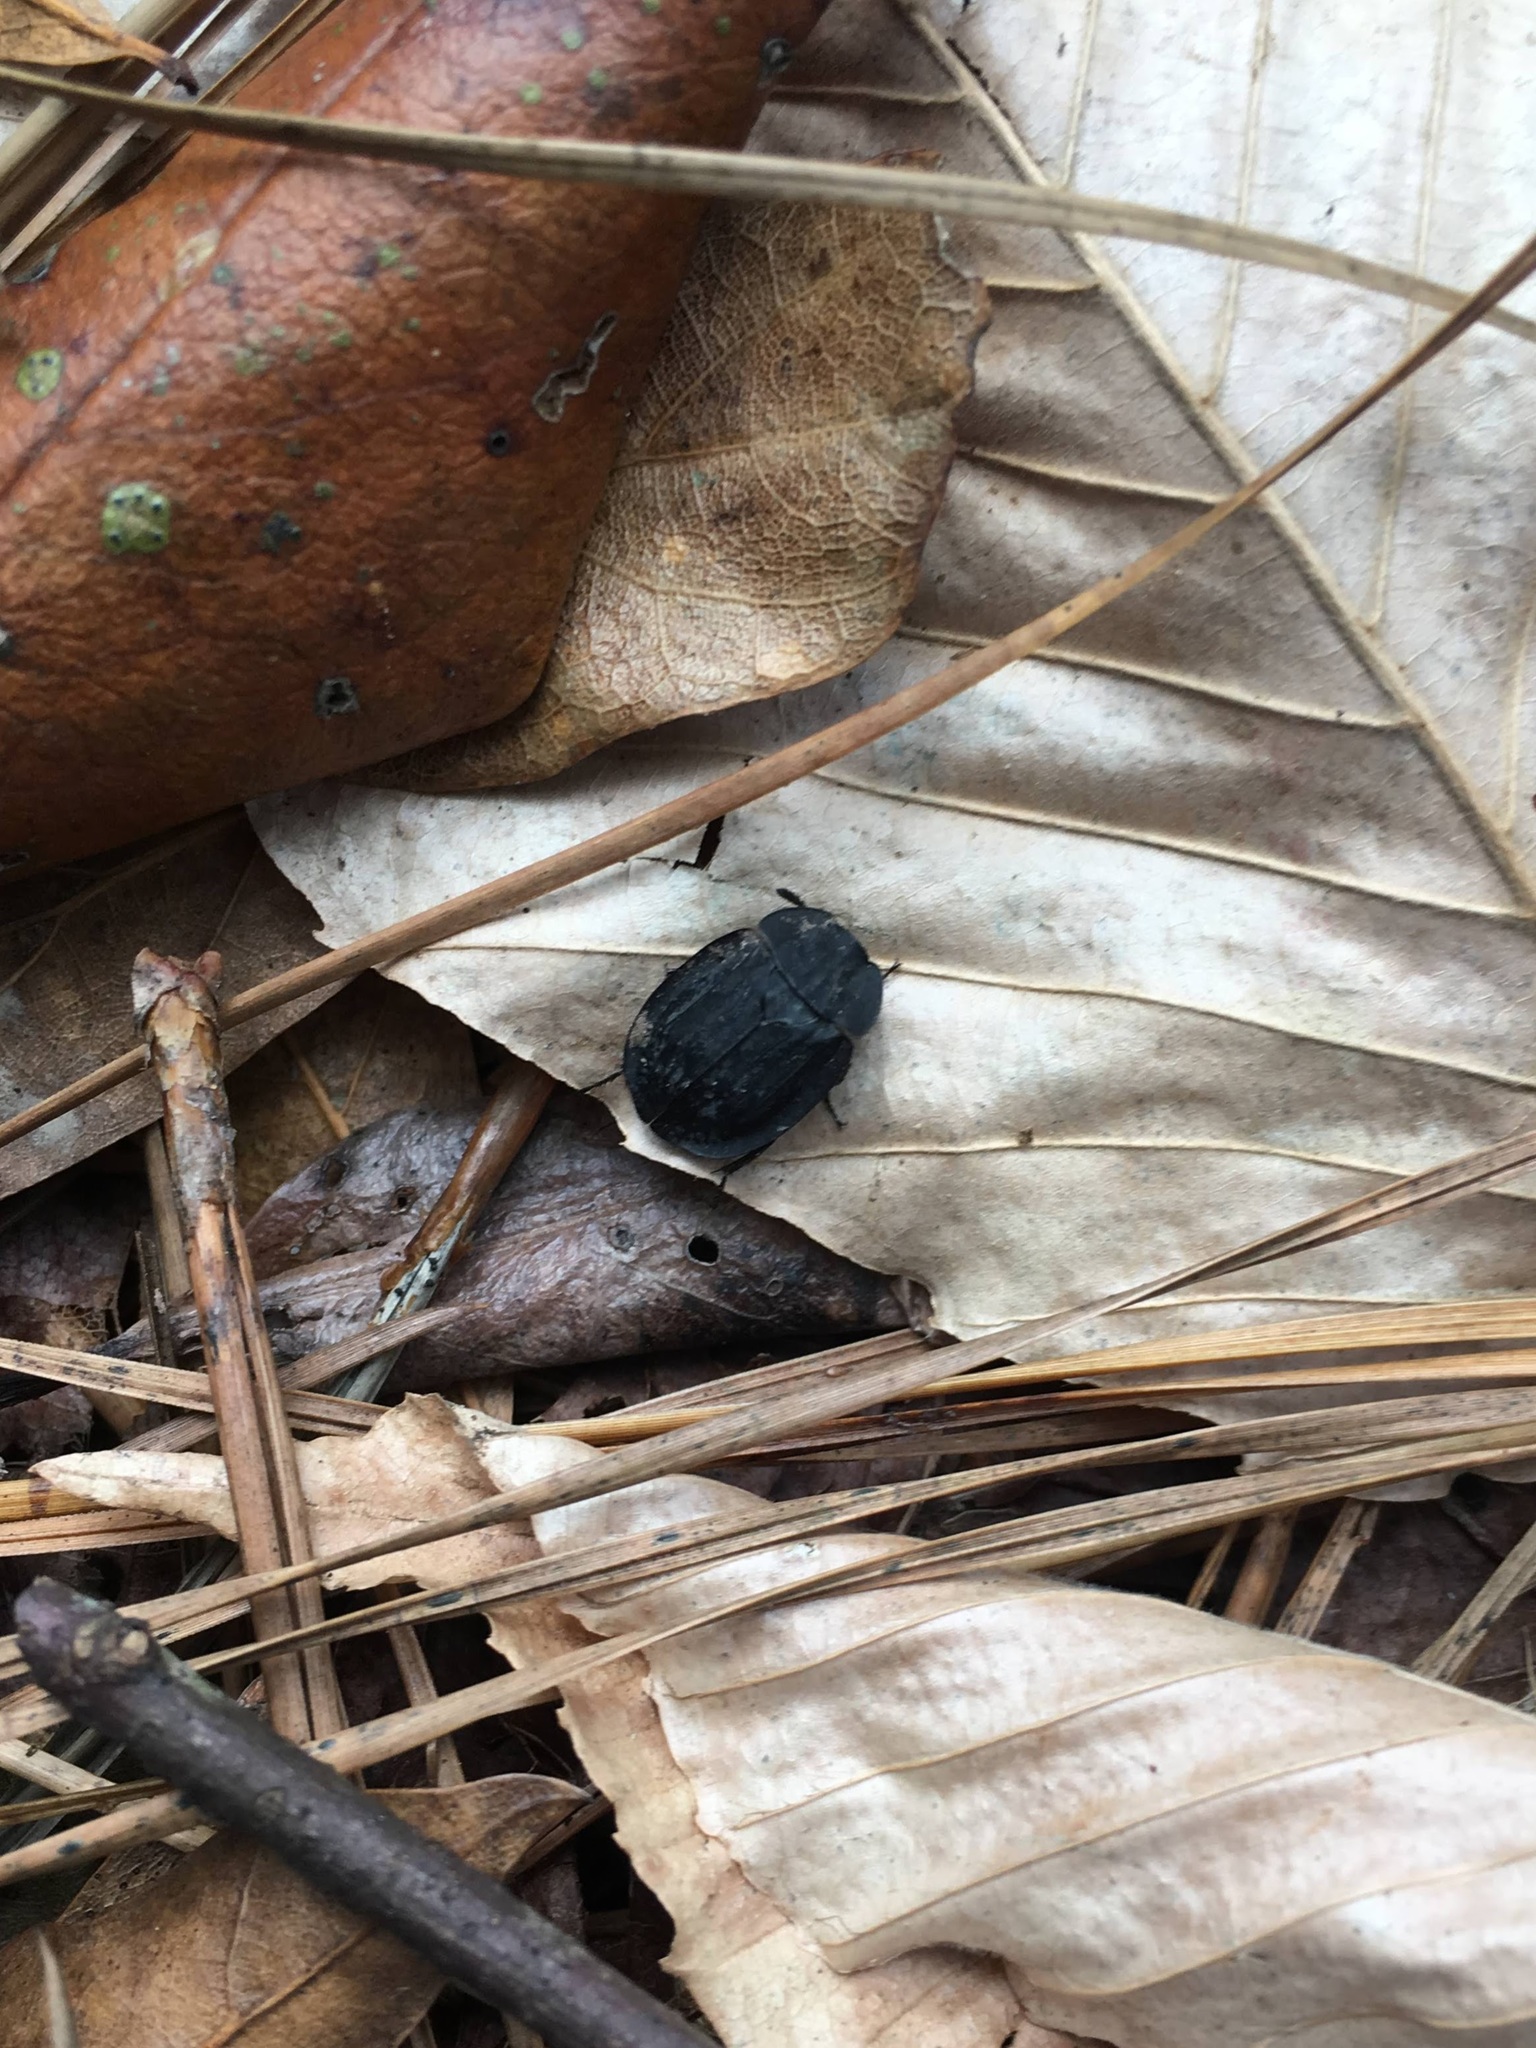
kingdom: Animalia
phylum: Arthropoda
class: Insecta
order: Coleoptera
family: Staphylinidae
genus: Oiceoptoma
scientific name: Oiceoptoma inaequale
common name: Ridged carrion beetle
